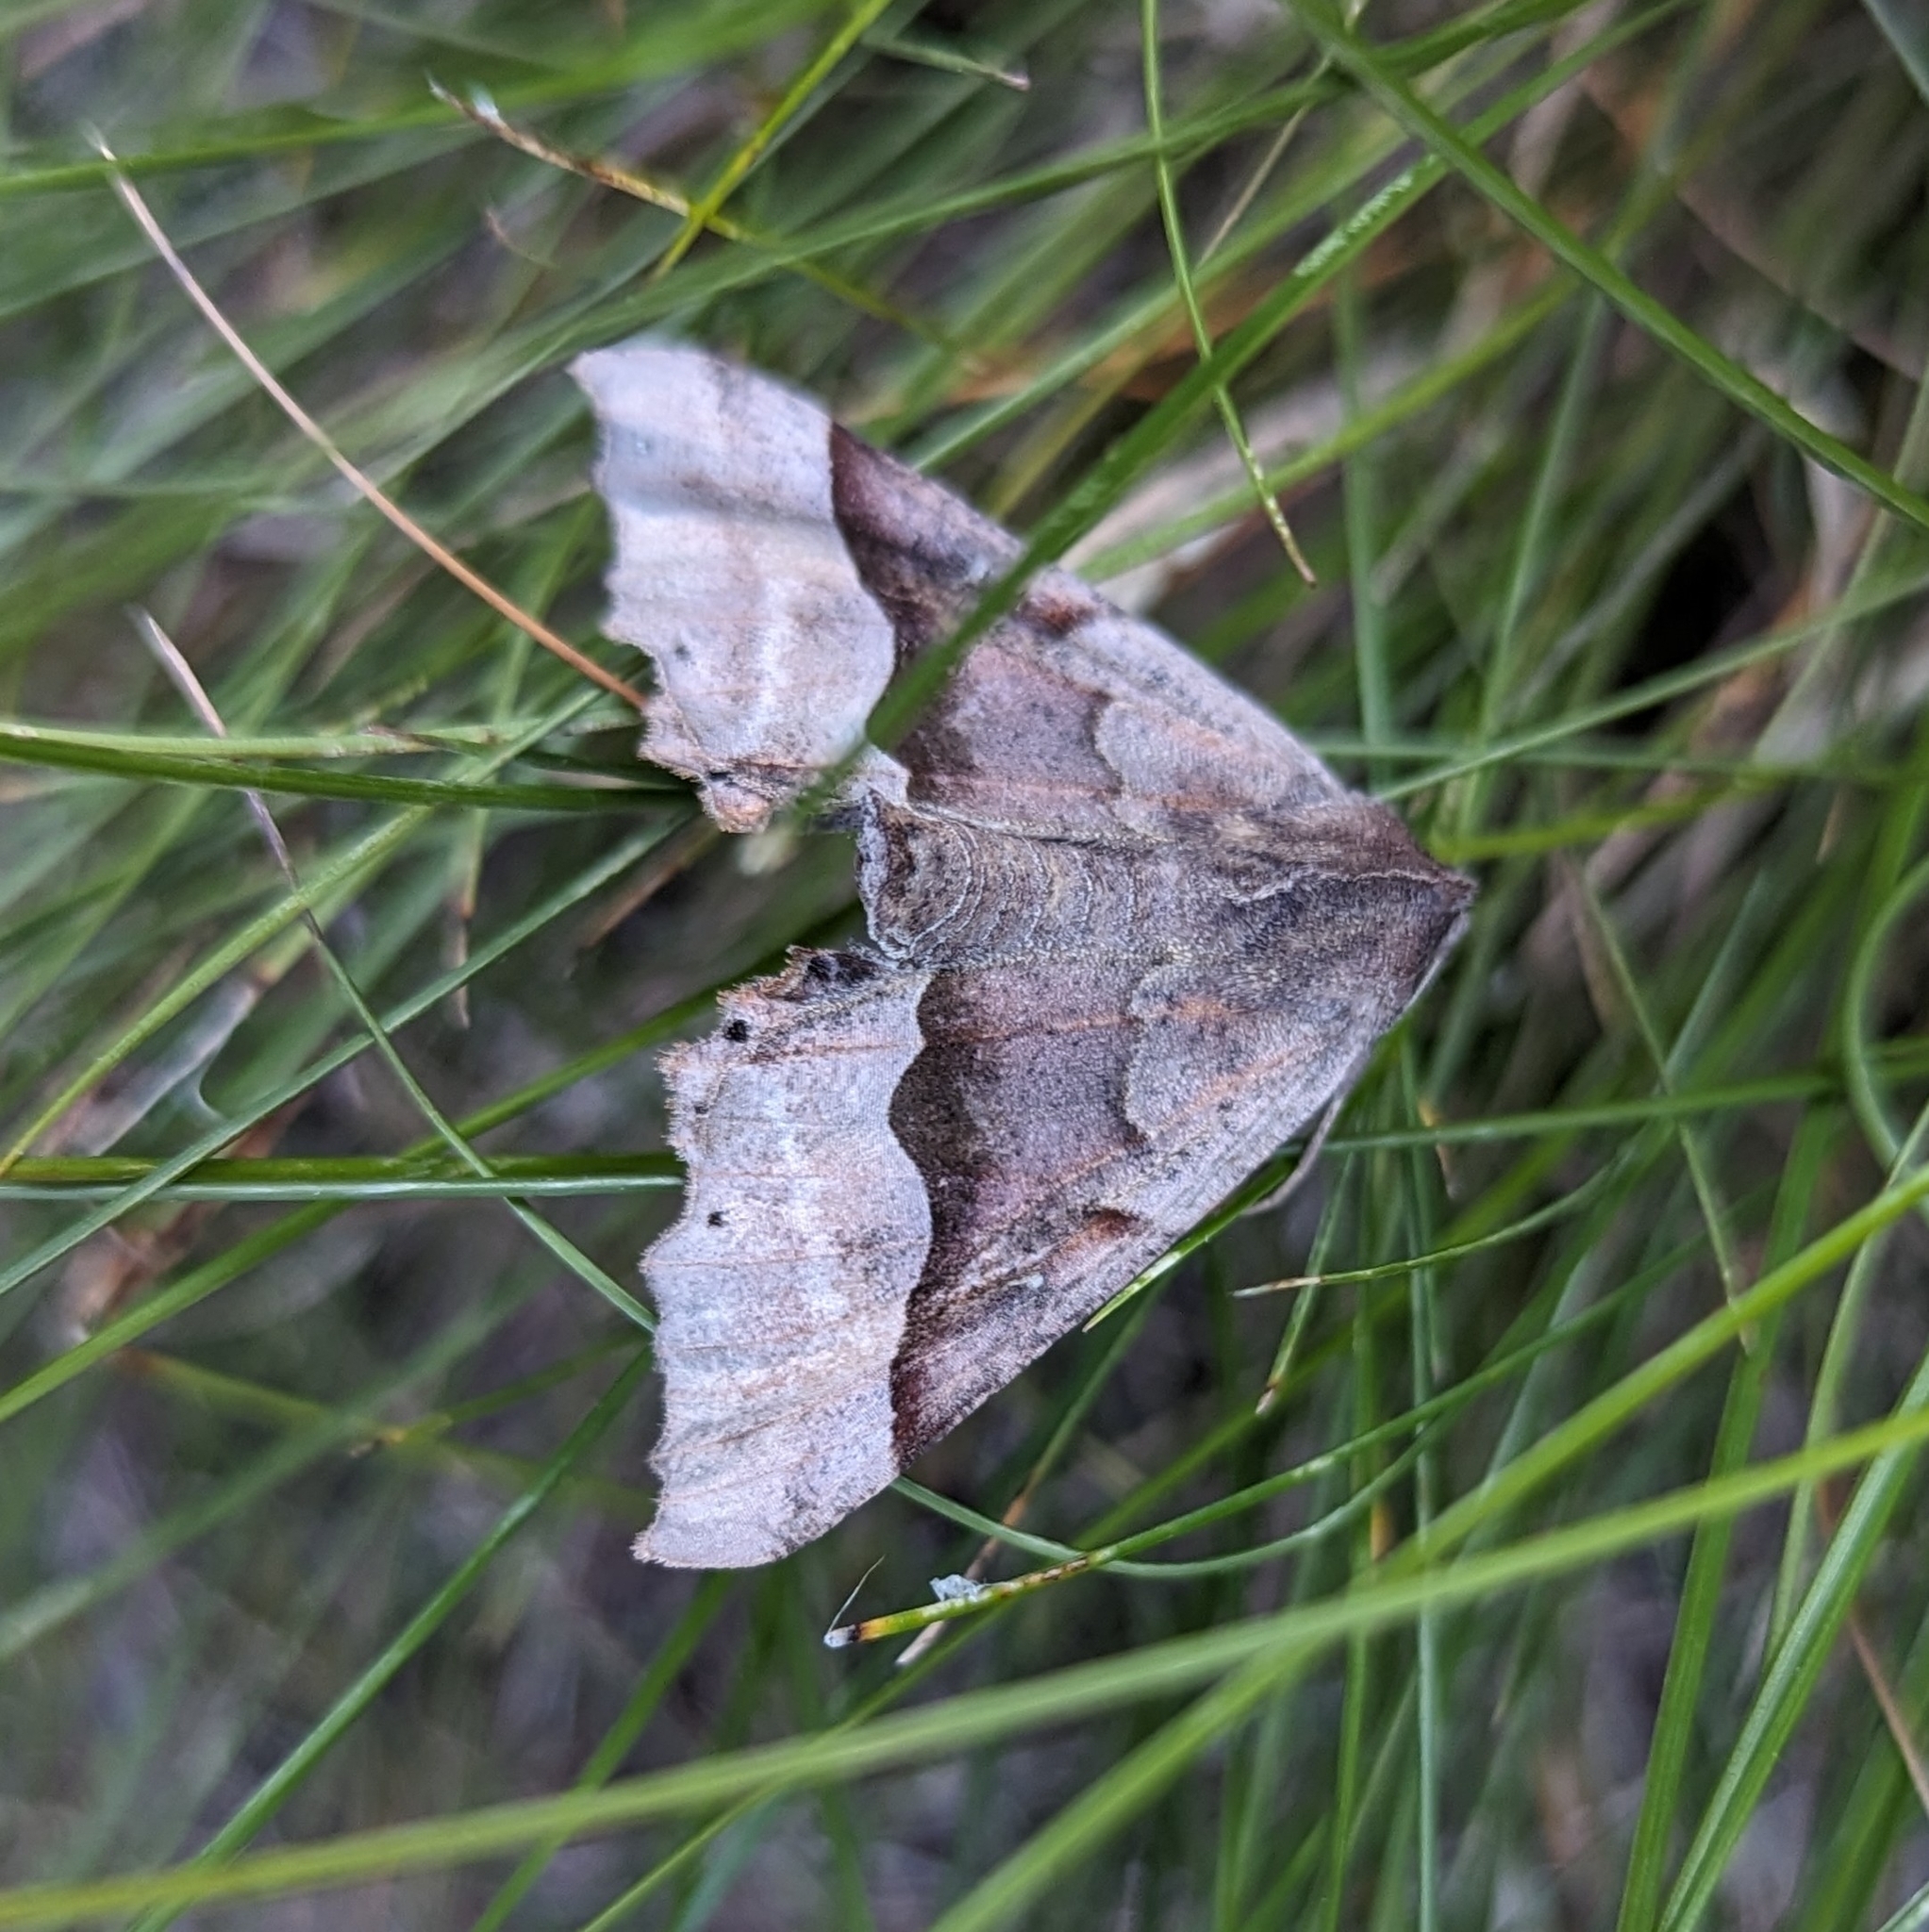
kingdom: Animalia
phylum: Arthropoda
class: Insecta
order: Lepidoptera
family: Geometridae
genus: Pero
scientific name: Pero mizon
